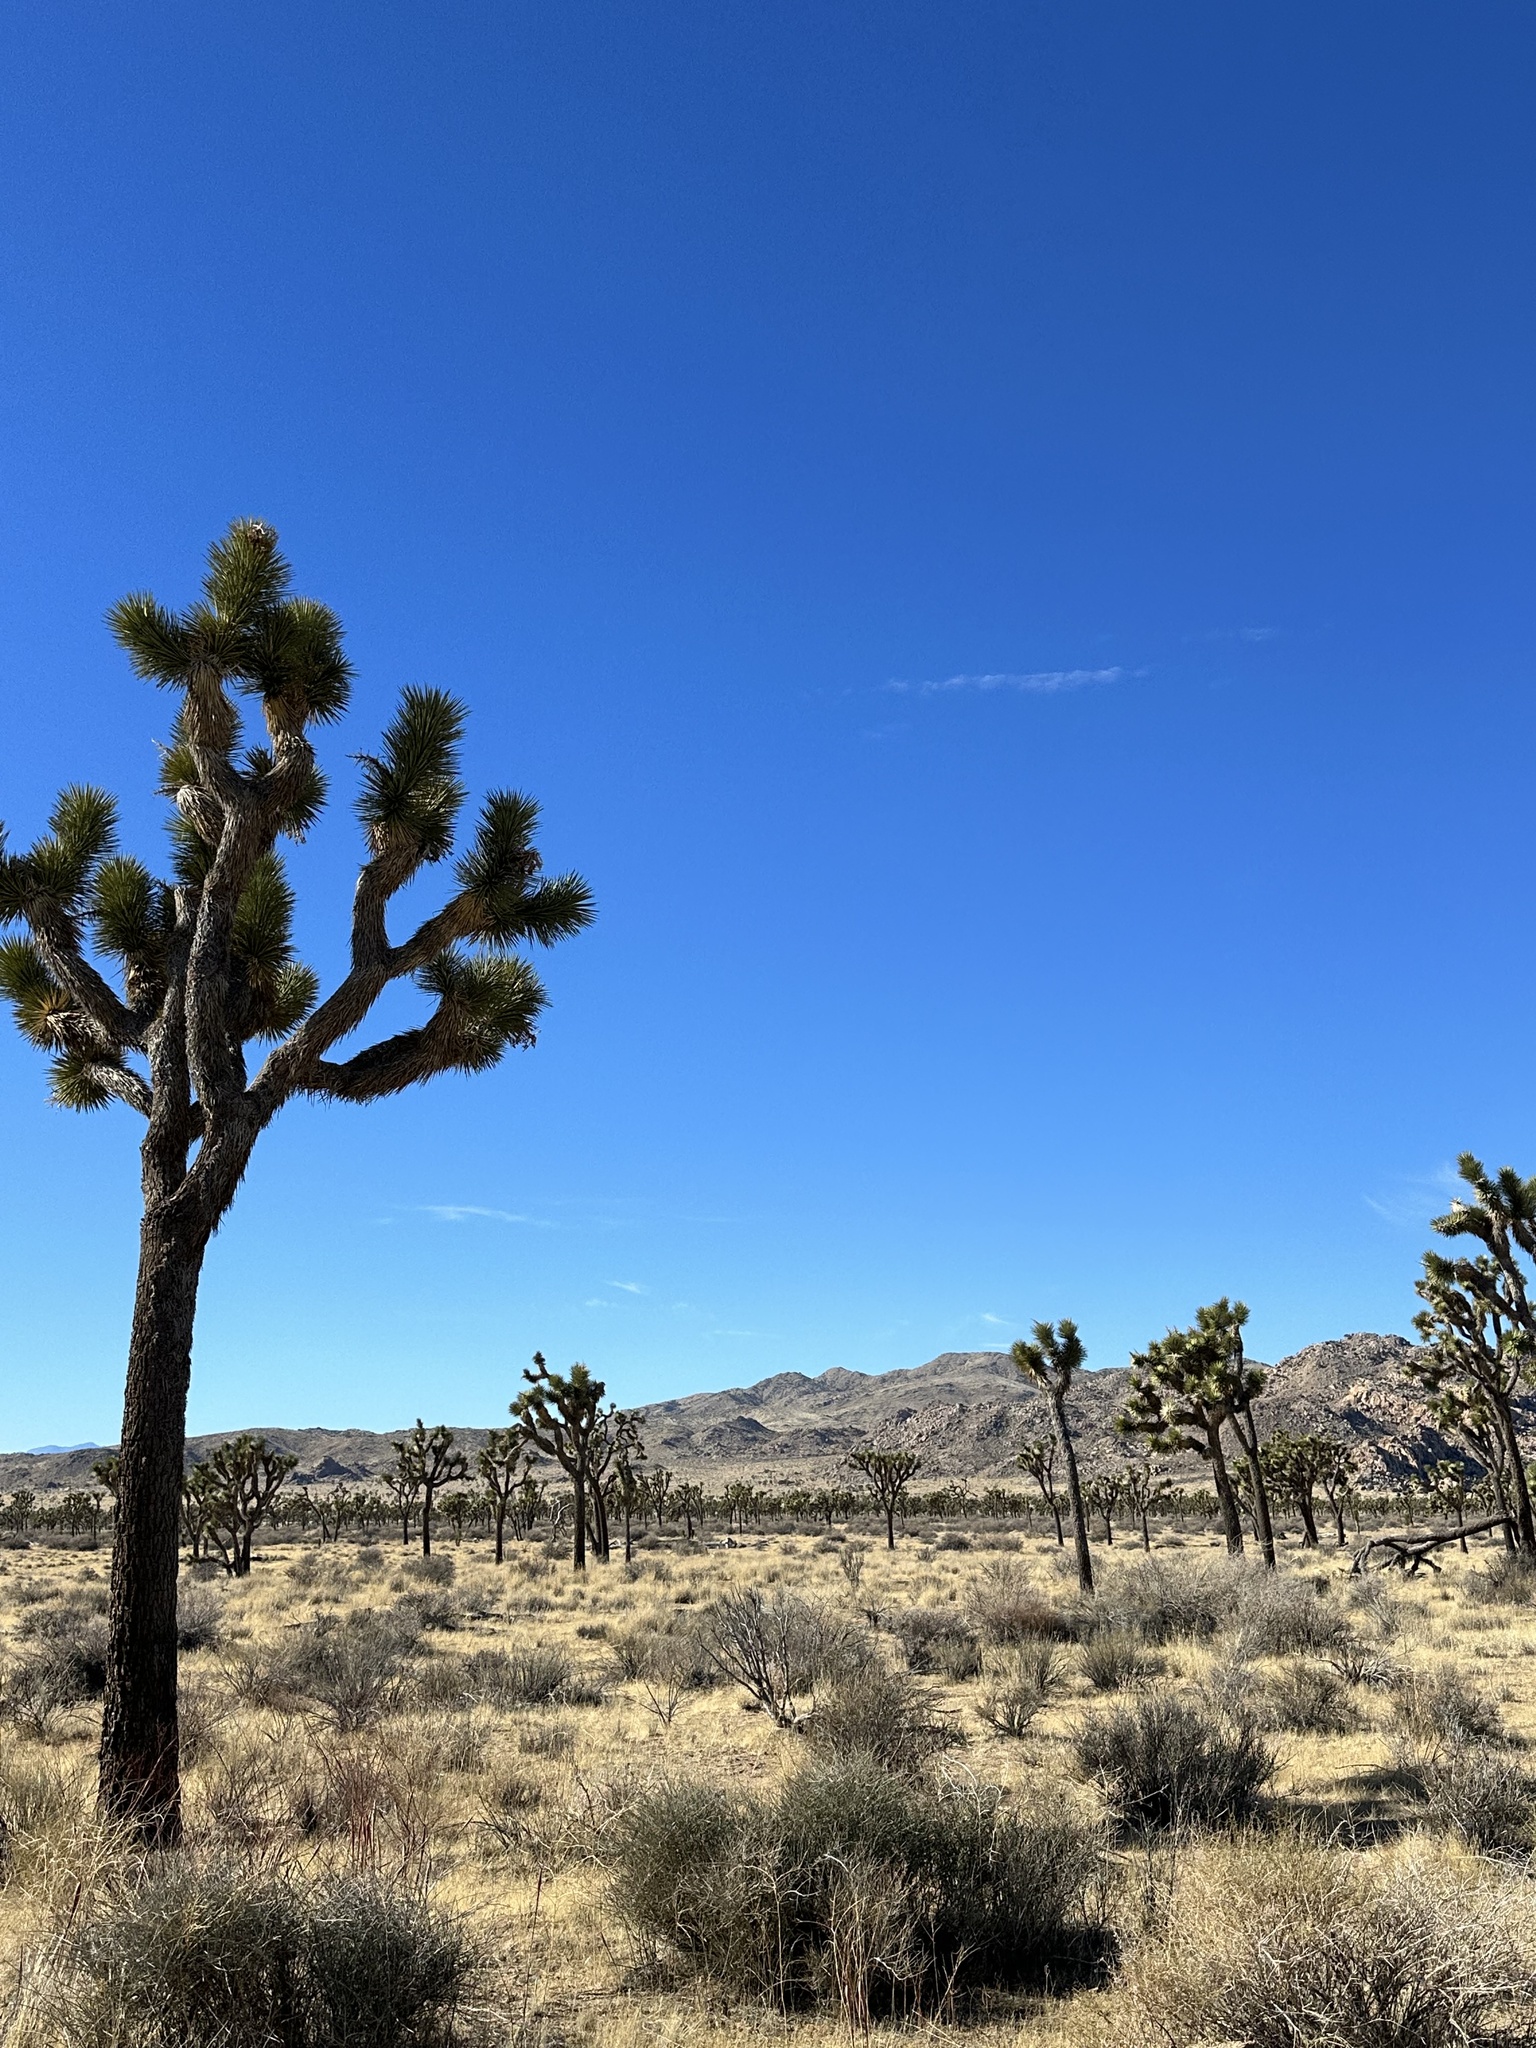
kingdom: Plantae
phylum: Tracheophyta
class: Liliopsida
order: Asparagales
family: Asparagaceae
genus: Yucca
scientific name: Yucca brevifolia
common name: Joshua tree
